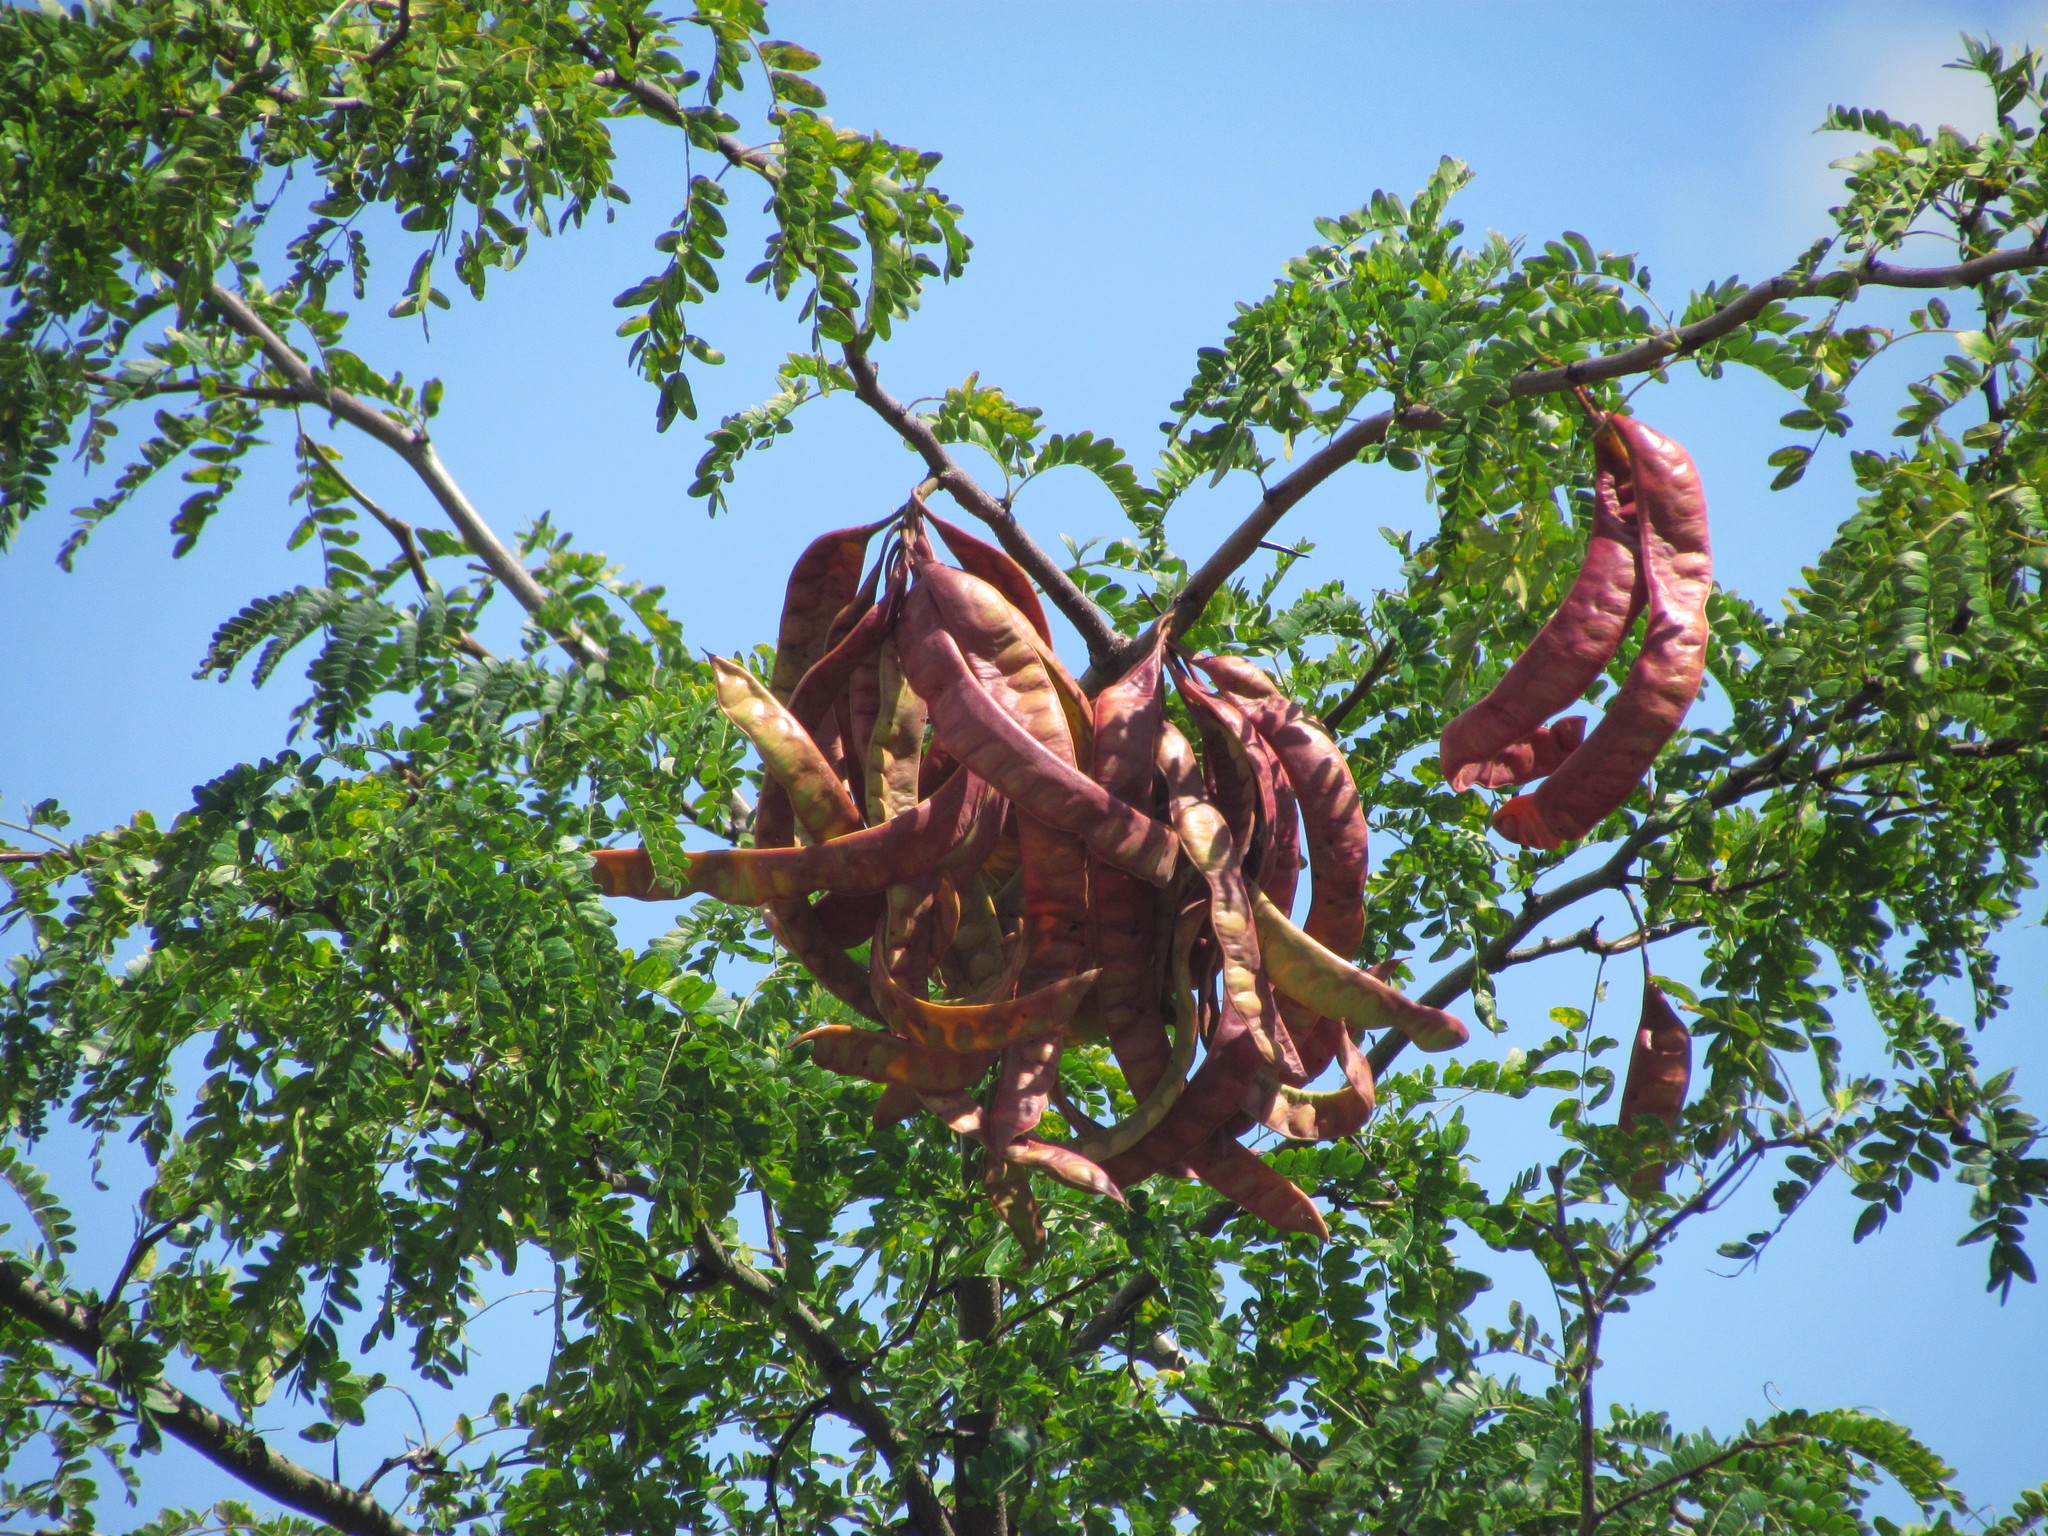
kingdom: Plantae
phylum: Tracheophyta
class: Magnoliopsida
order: Fabales
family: Fabaceae
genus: Gleditsia
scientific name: Gleditsia triacanthos
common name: Common honeylocust
